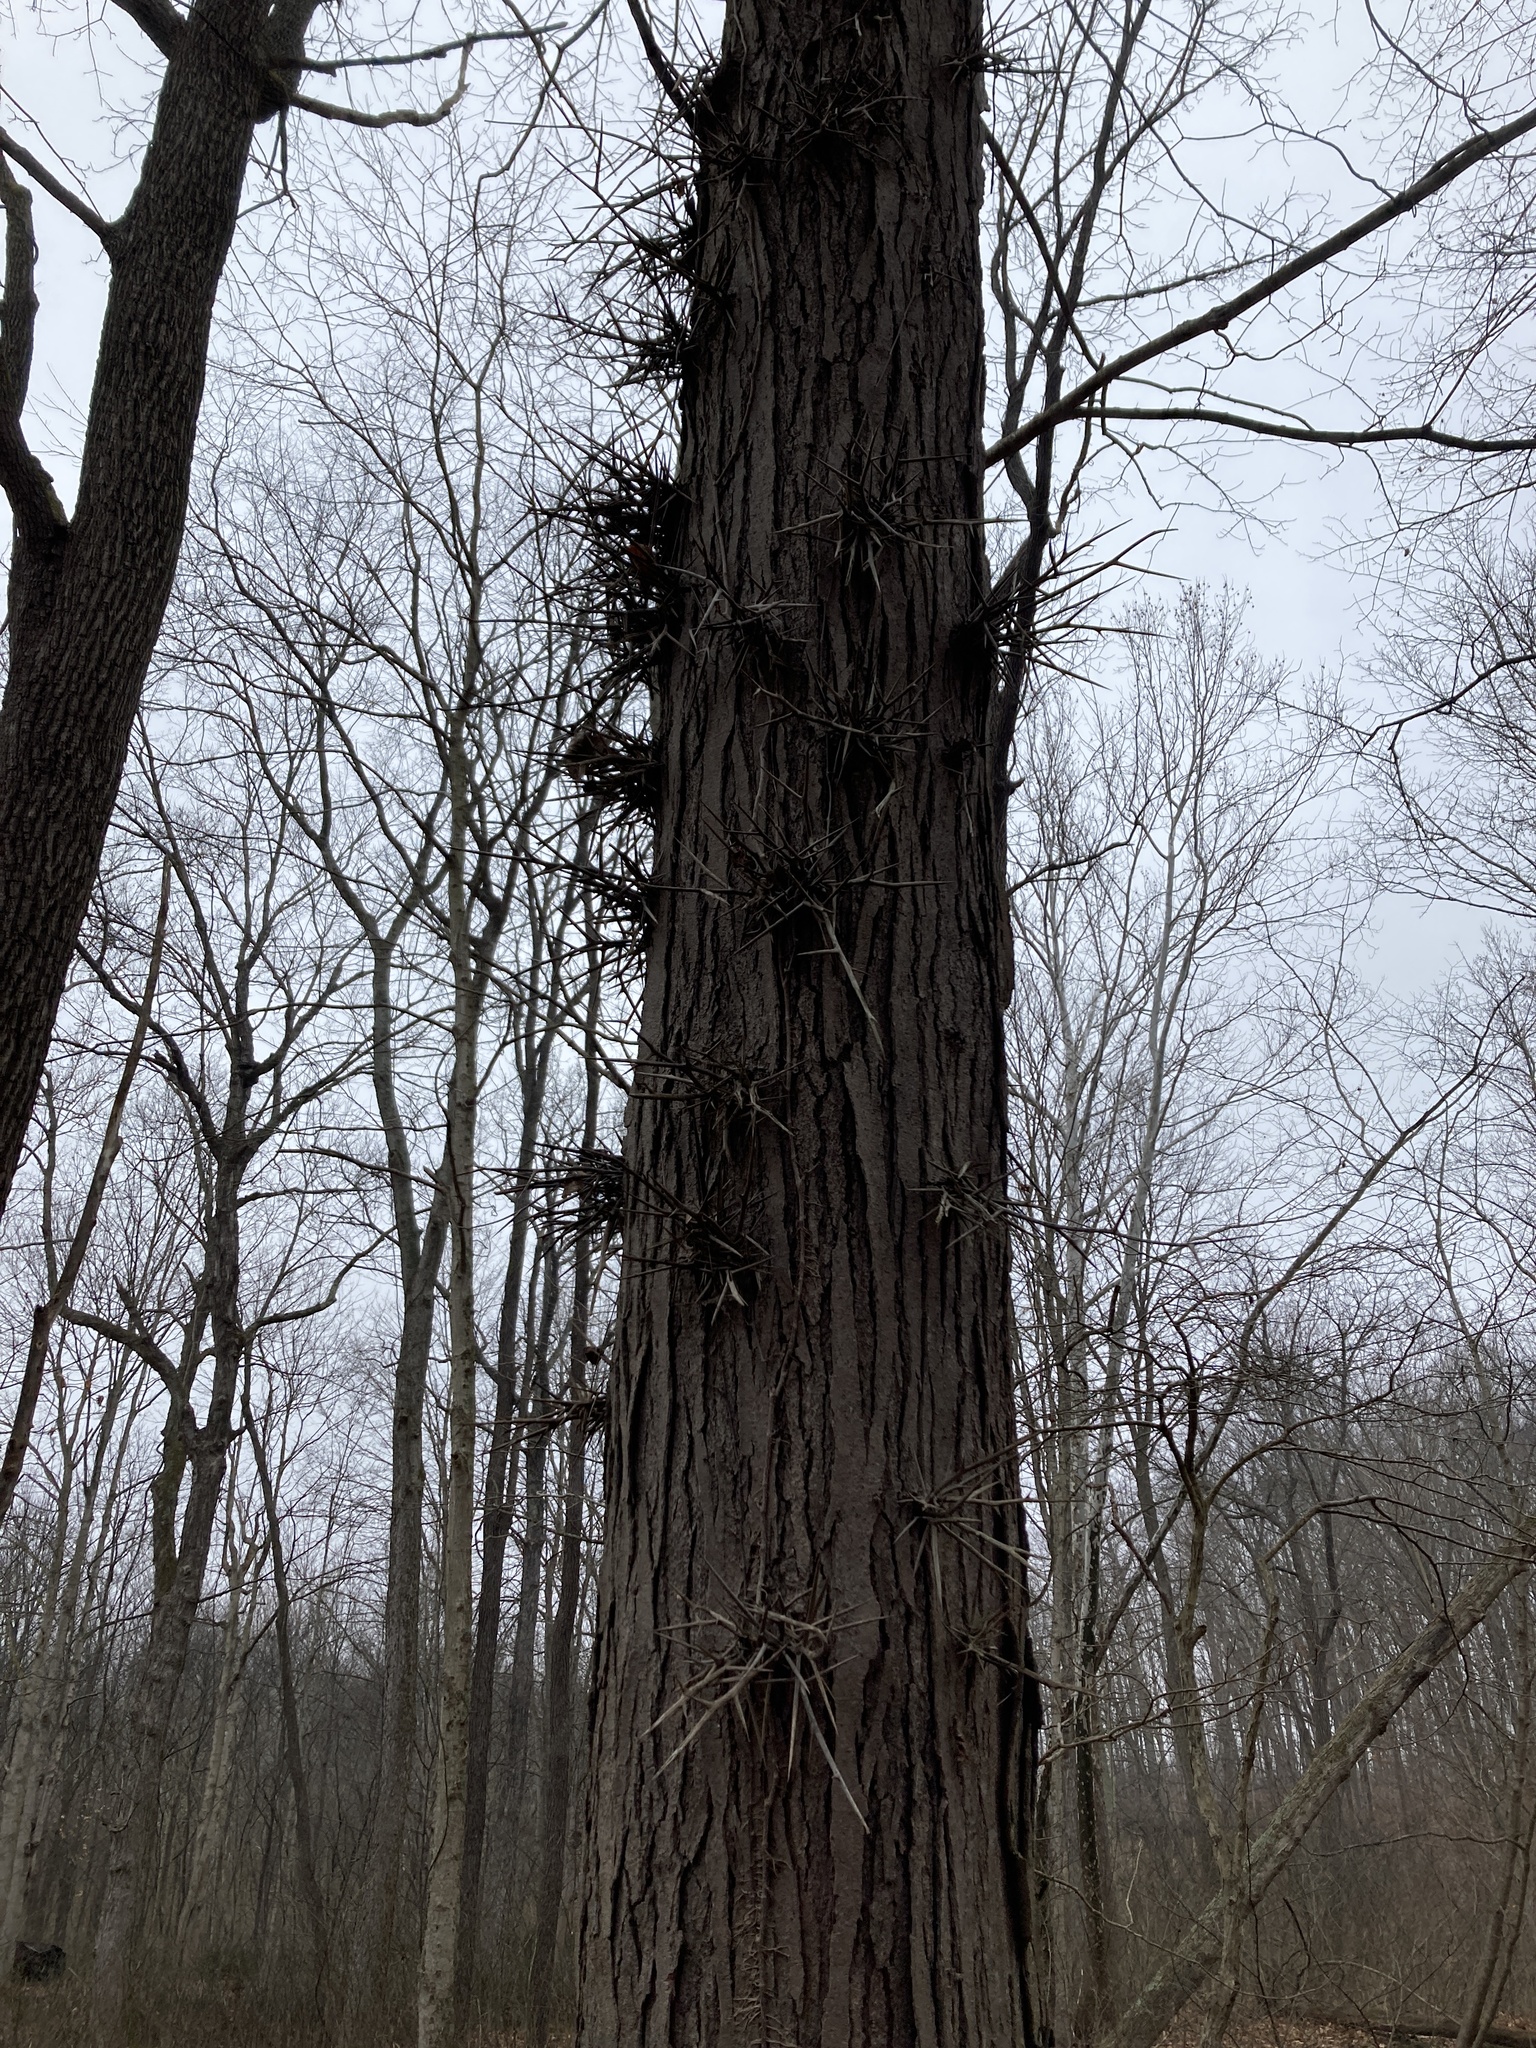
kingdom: Plantae
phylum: Tracheophyta
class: Magnoliopsida
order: Fabales
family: Fabaceae
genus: Gleditsia
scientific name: Gleditsia triacanthos
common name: Common honeylocust
